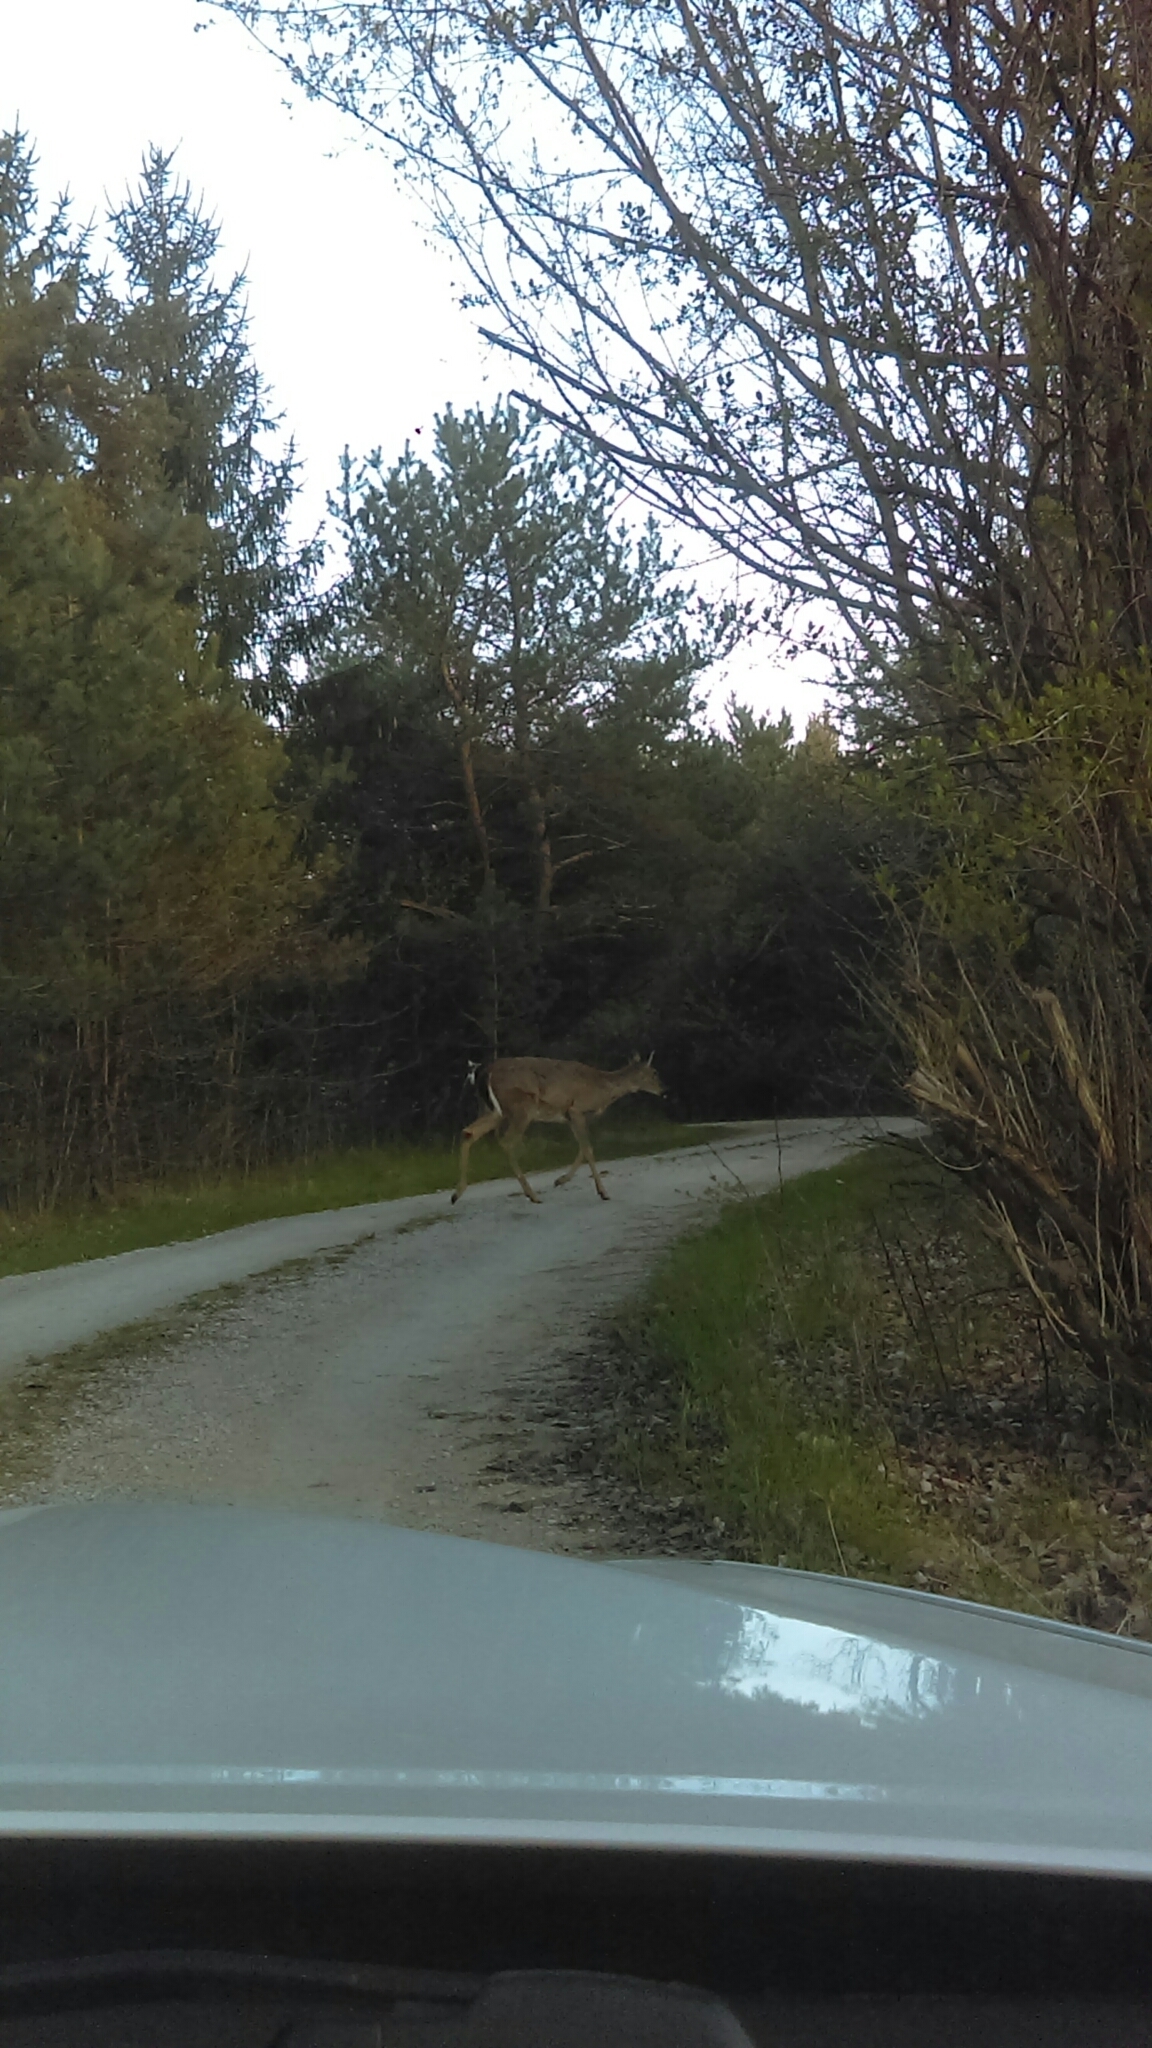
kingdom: Animalia
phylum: Chordata
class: Mammalia
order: Artiodactyla
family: Cervidae
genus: Odocoileus
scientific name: Odocoileus virginianus
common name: White-tailed deer
